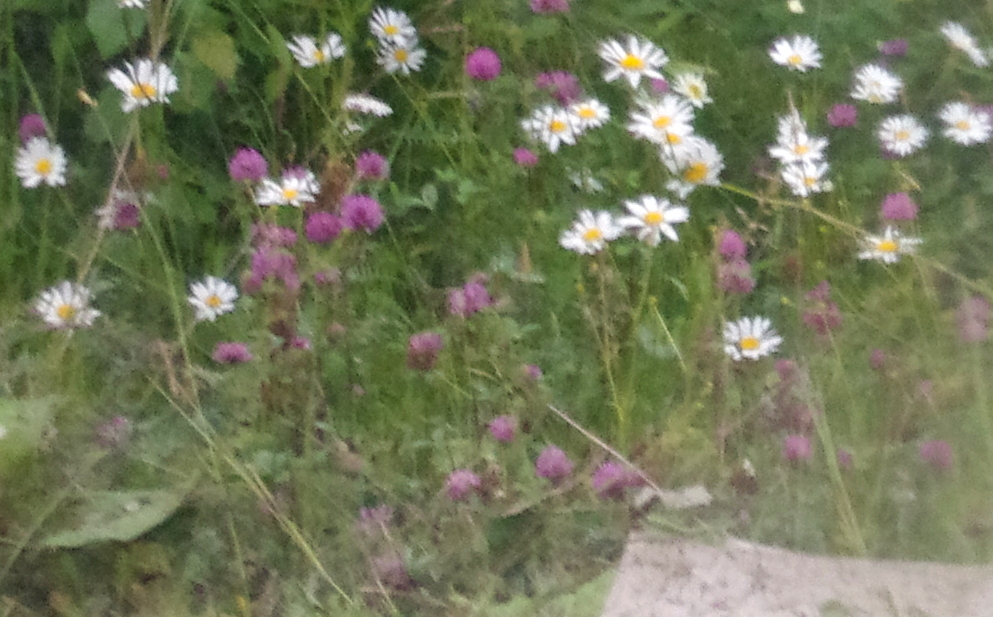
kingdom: Plantae
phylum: Tracheophyta
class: Magnoliopsida
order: Fabales
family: Fabaceae
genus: Trifolium
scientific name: Trifolium pratense
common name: Red clover
